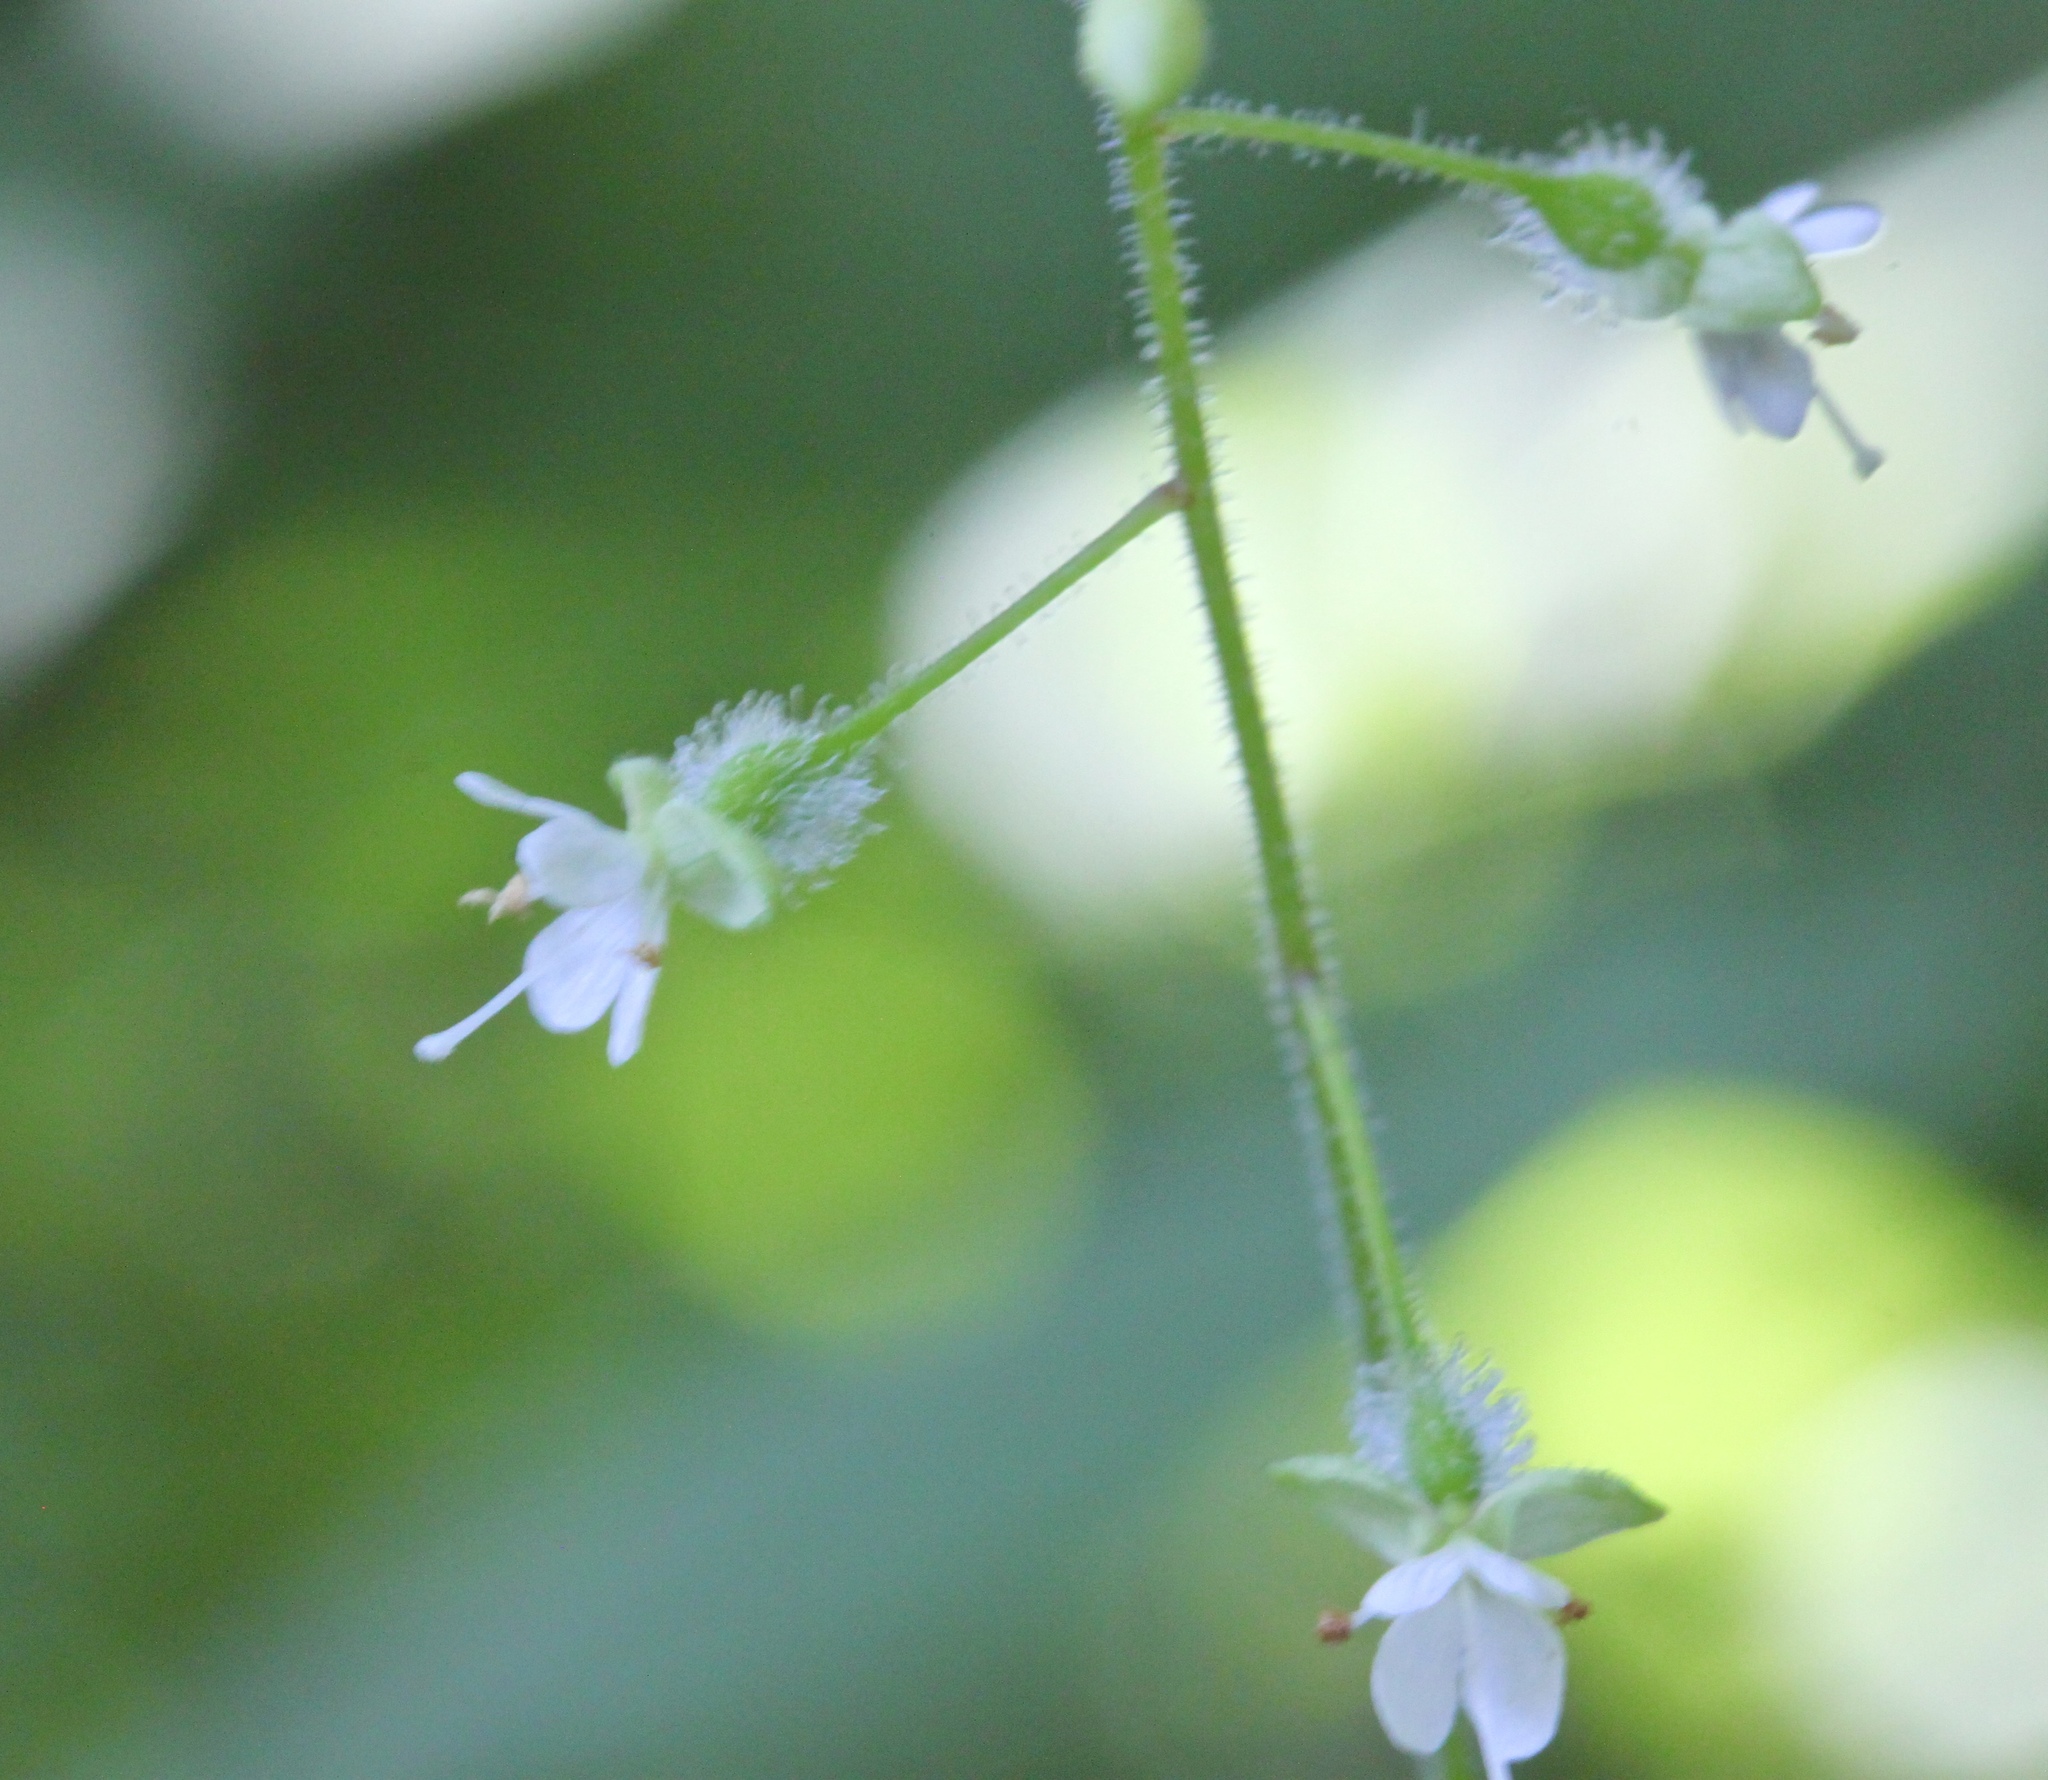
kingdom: Plantae
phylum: Tracheophyta
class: Magnoliopsida
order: Myrtales
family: Onagraceae
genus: Circaea
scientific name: Circaea canadensis
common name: Broad-leaved enchanter's nightshade
